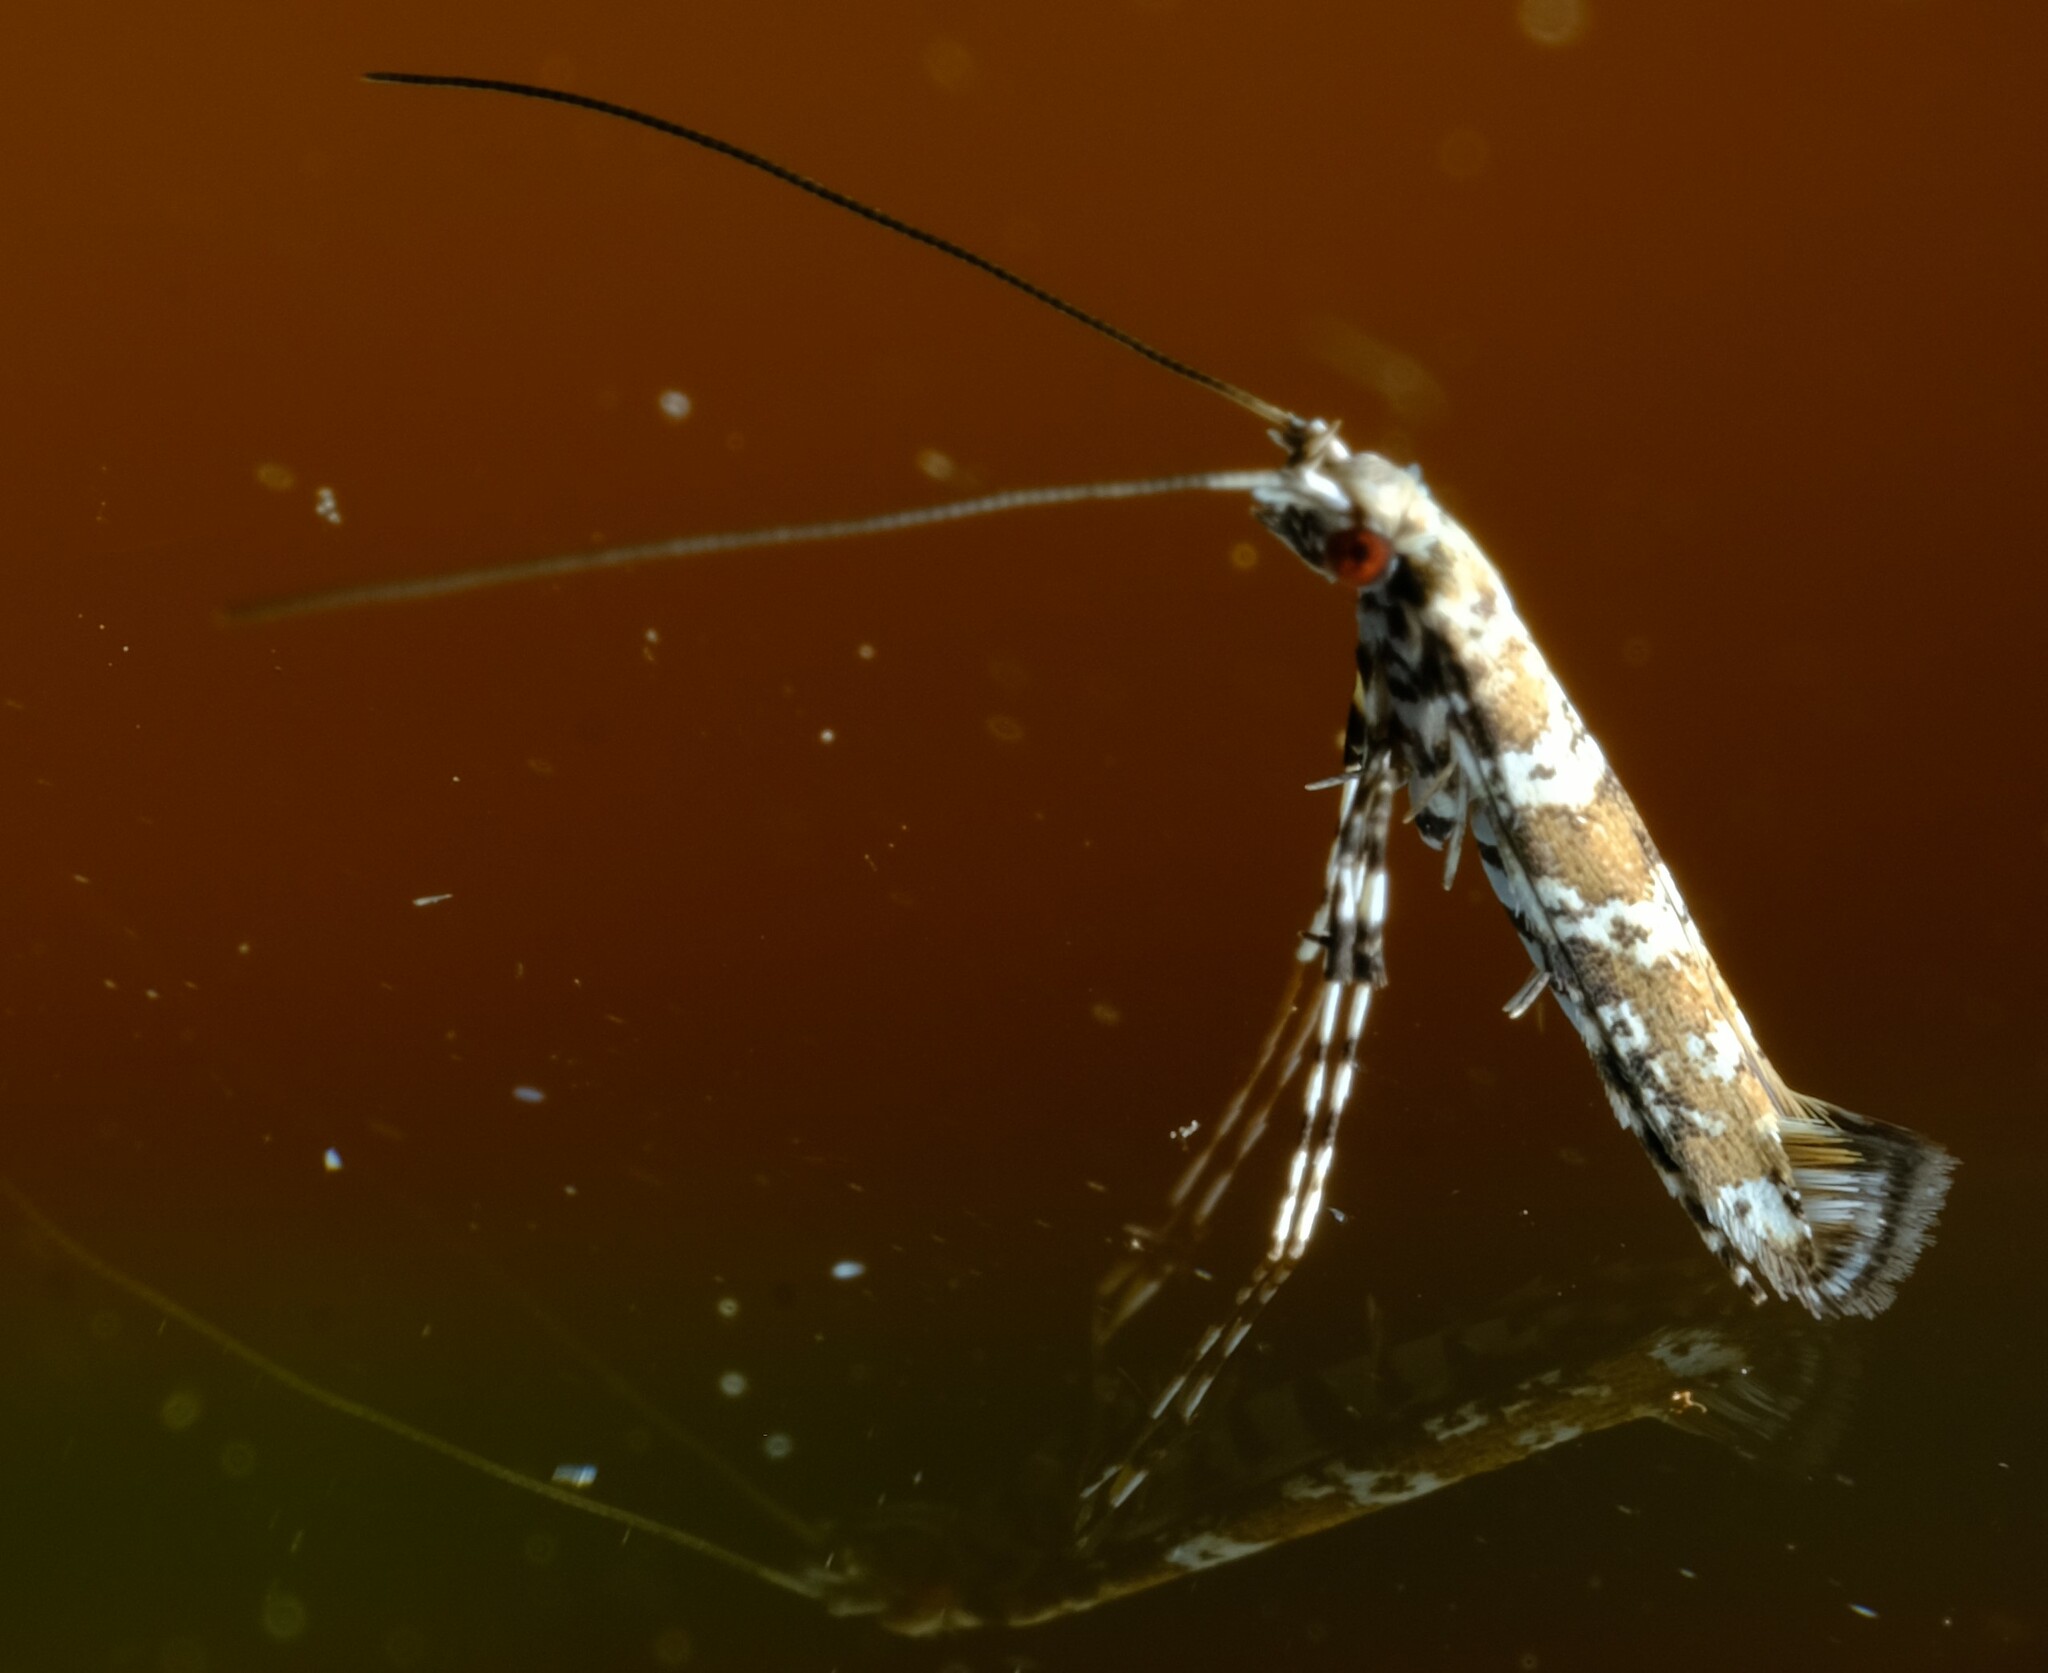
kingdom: Animalia
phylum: Arthropoda
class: Insecta
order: Lepidoptera
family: Gracillariidae
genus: Gibbovalva
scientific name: Gibbovalva quadrifasciata
